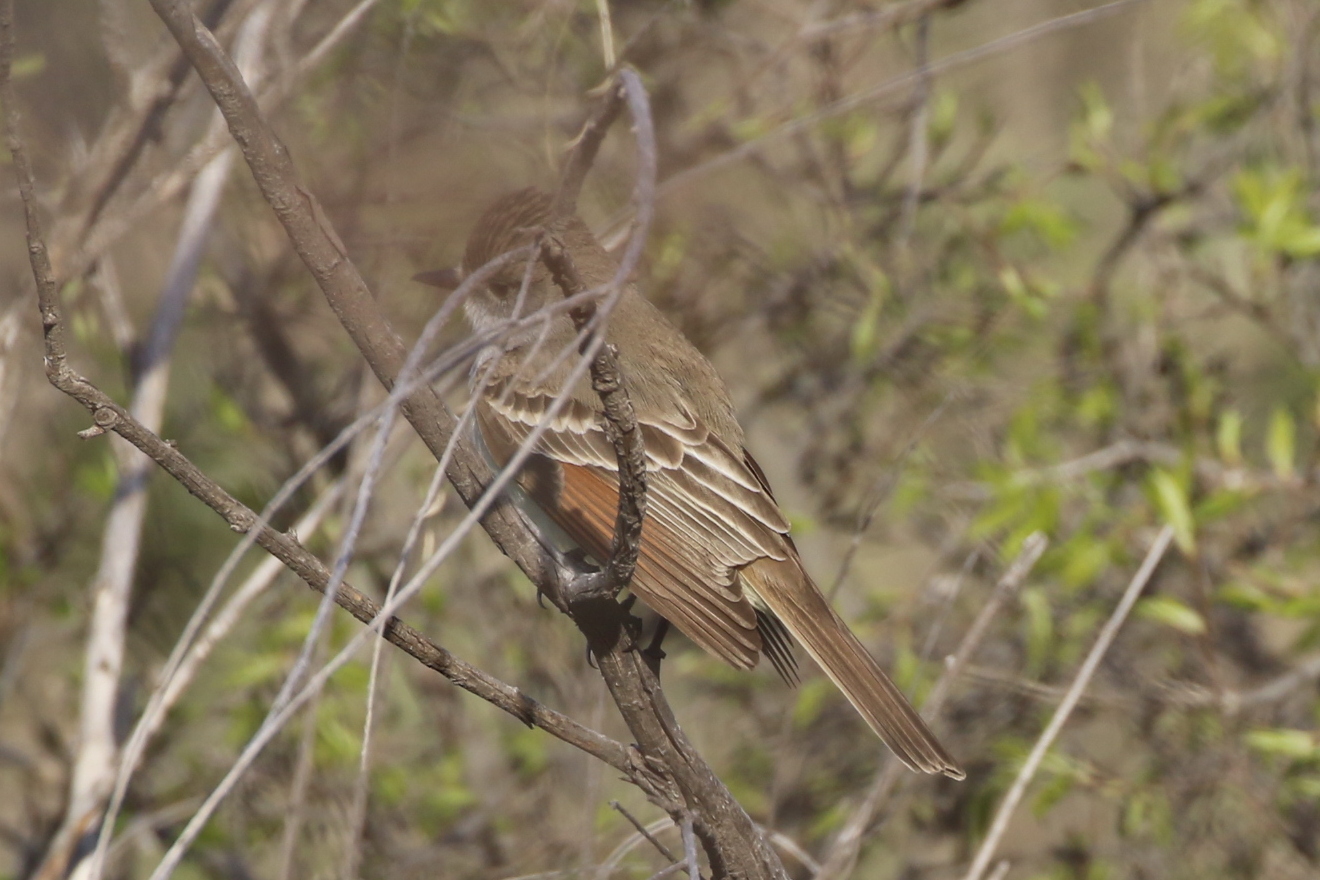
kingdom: Animalia
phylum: Chordata
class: Aves
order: Passeriformes
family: Tyrannidae
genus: Myiarchus
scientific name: Myiarchus cinerascens
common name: Ash-throated flycatcher
